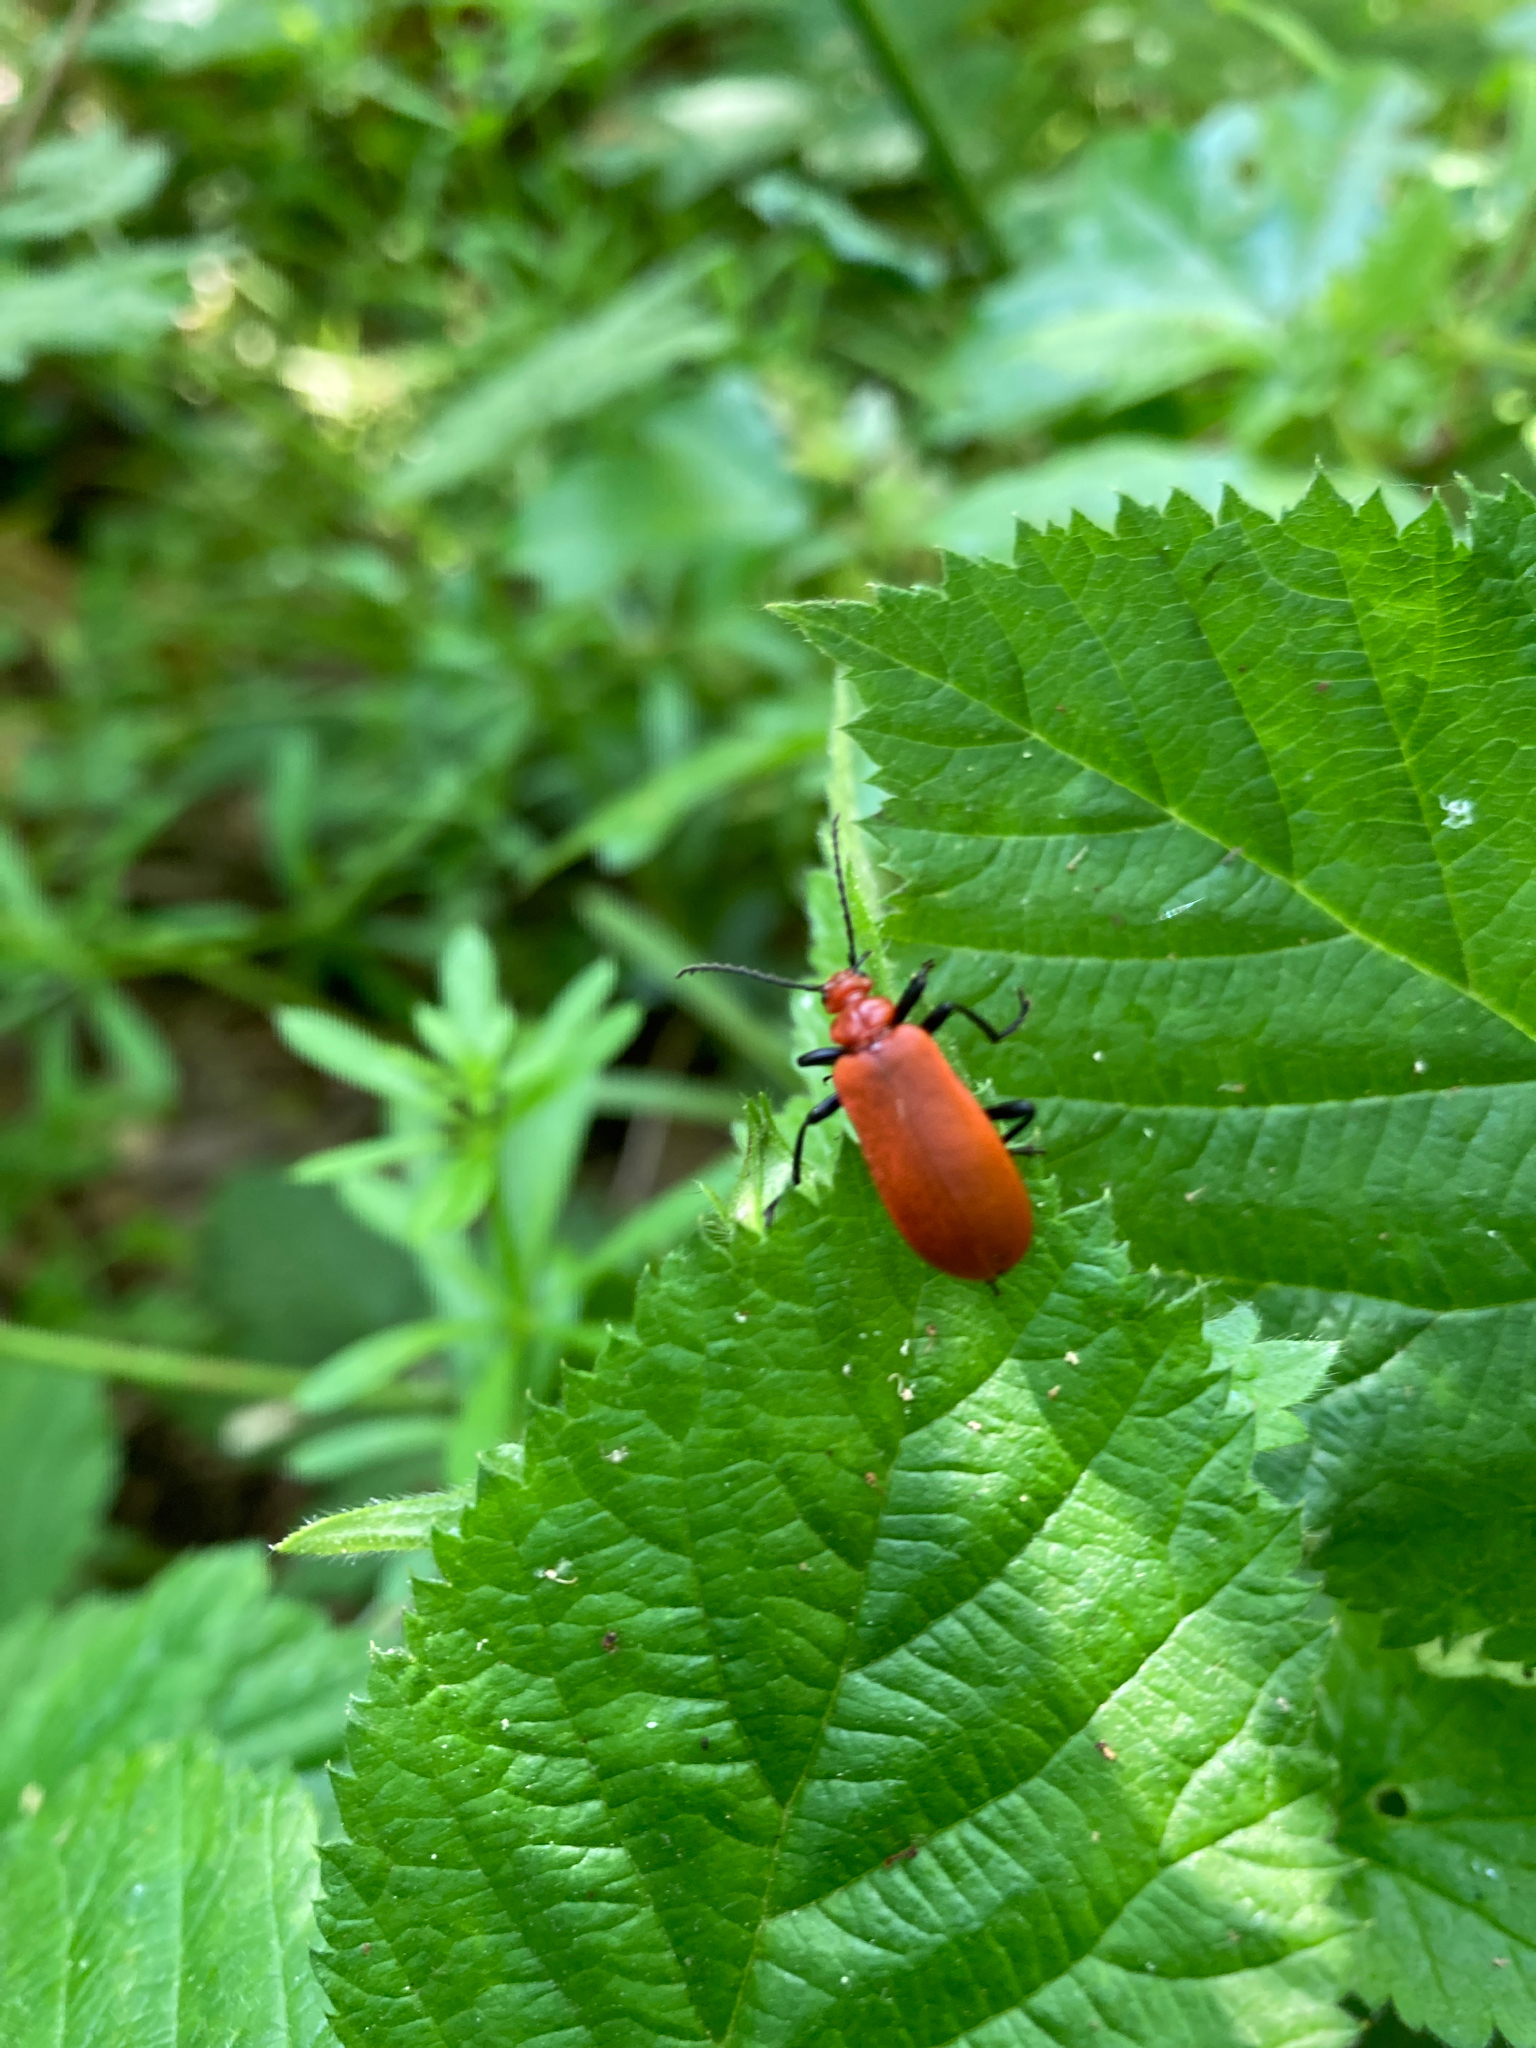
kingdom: Animalia
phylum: Arthropoda
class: Insecta
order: Coleoptera
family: Pyrochroidae
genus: Pyrochroa
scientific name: Pyrochroa serraticornis
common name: Red-headed cardinal beetle
